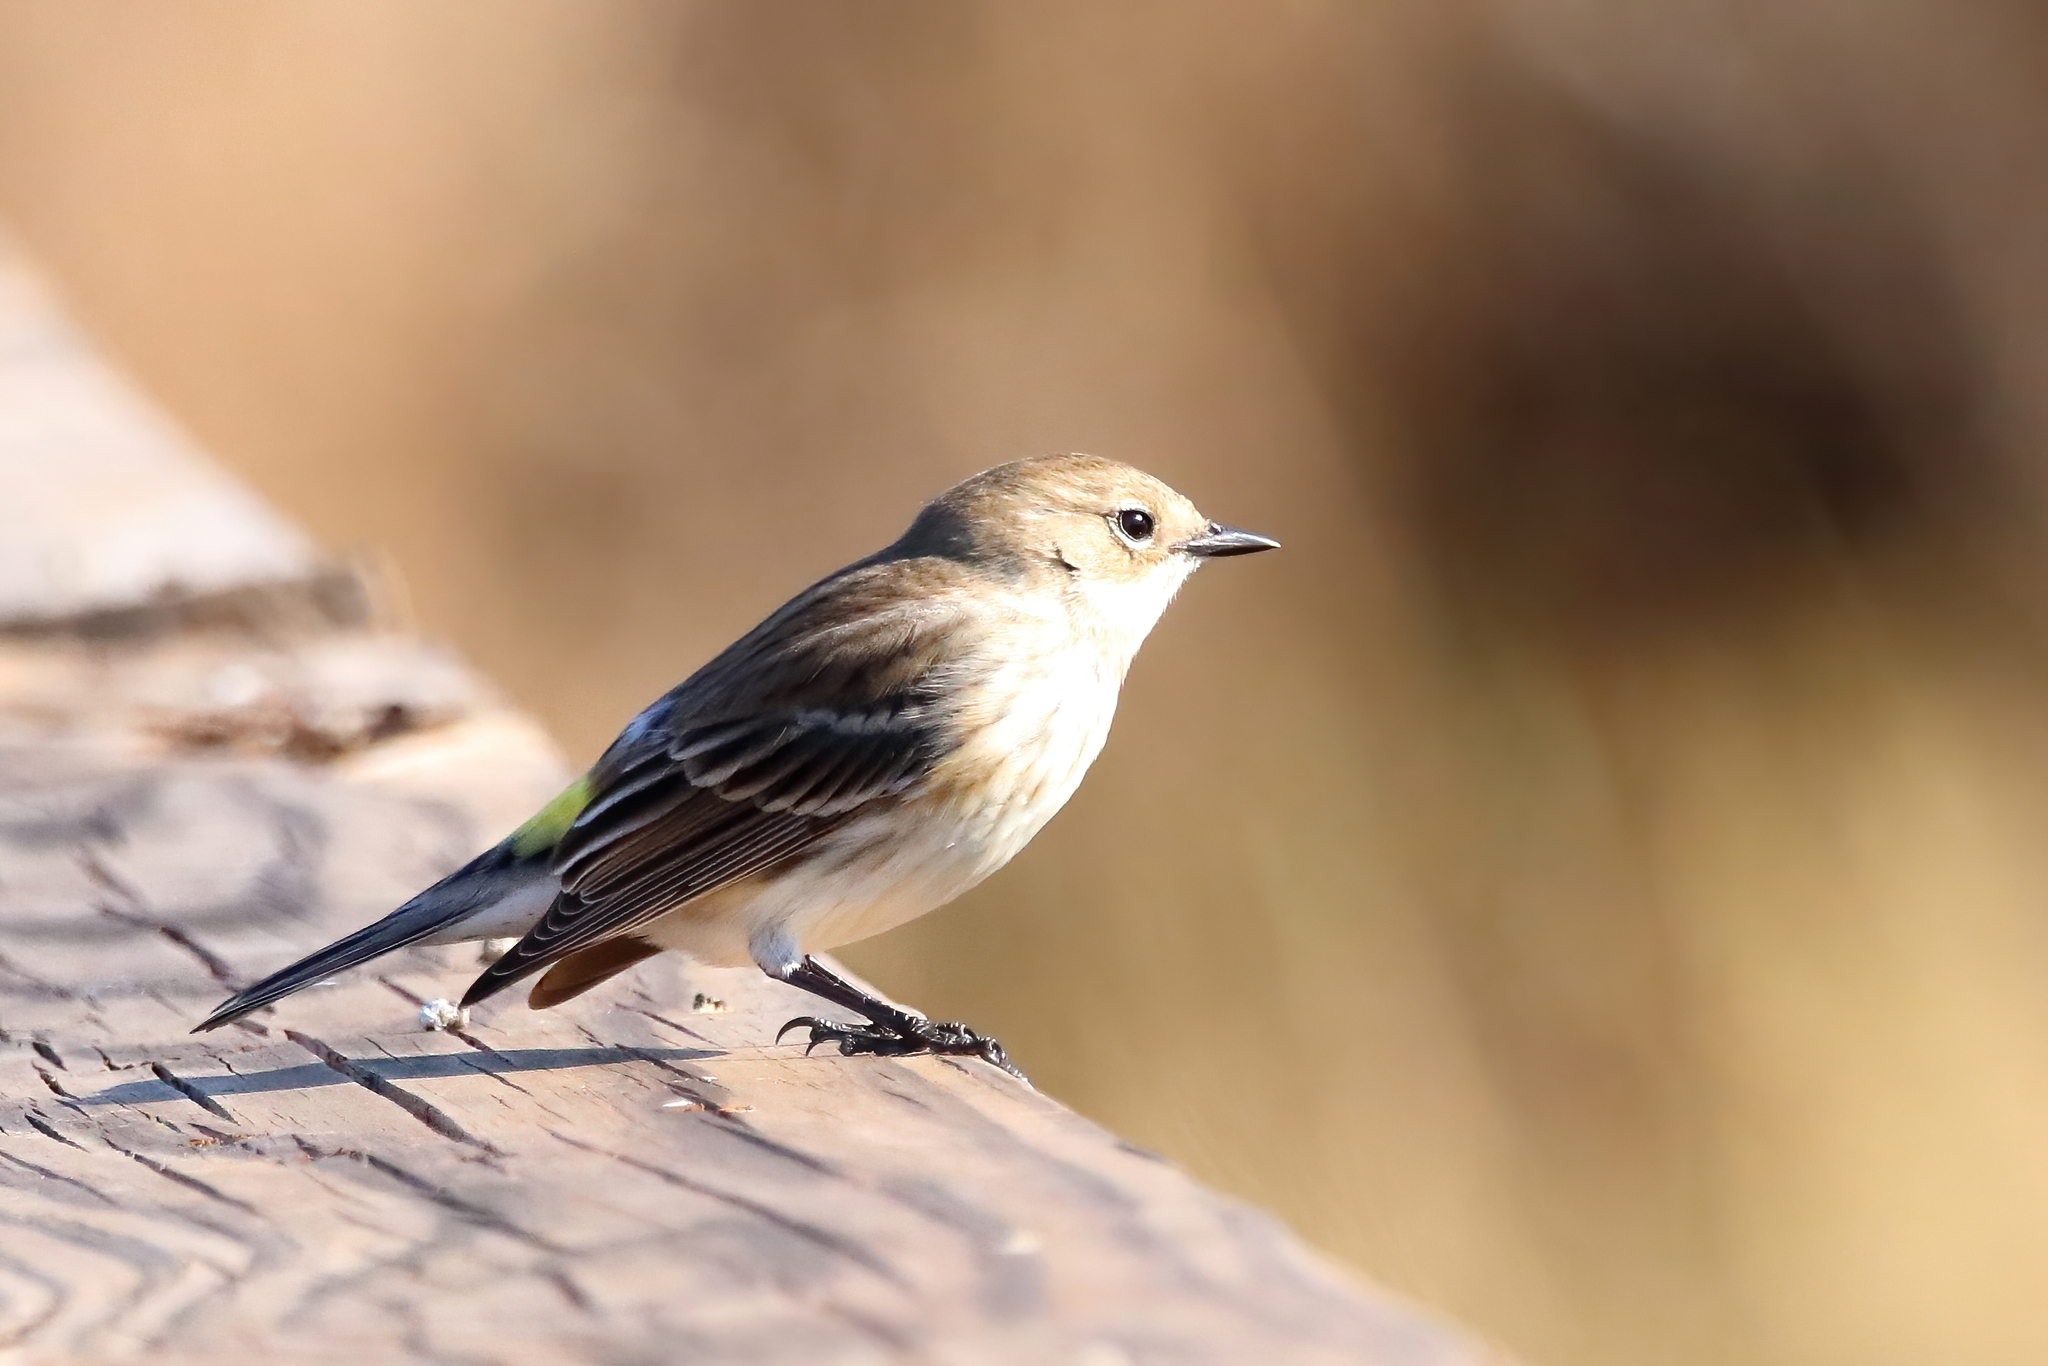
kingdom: Animalia
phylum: Chordata
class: Aves
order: Passeriformes
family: Parulidae
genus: Setophaga
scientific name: Setophaga coronata
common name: Myrtle warbler
